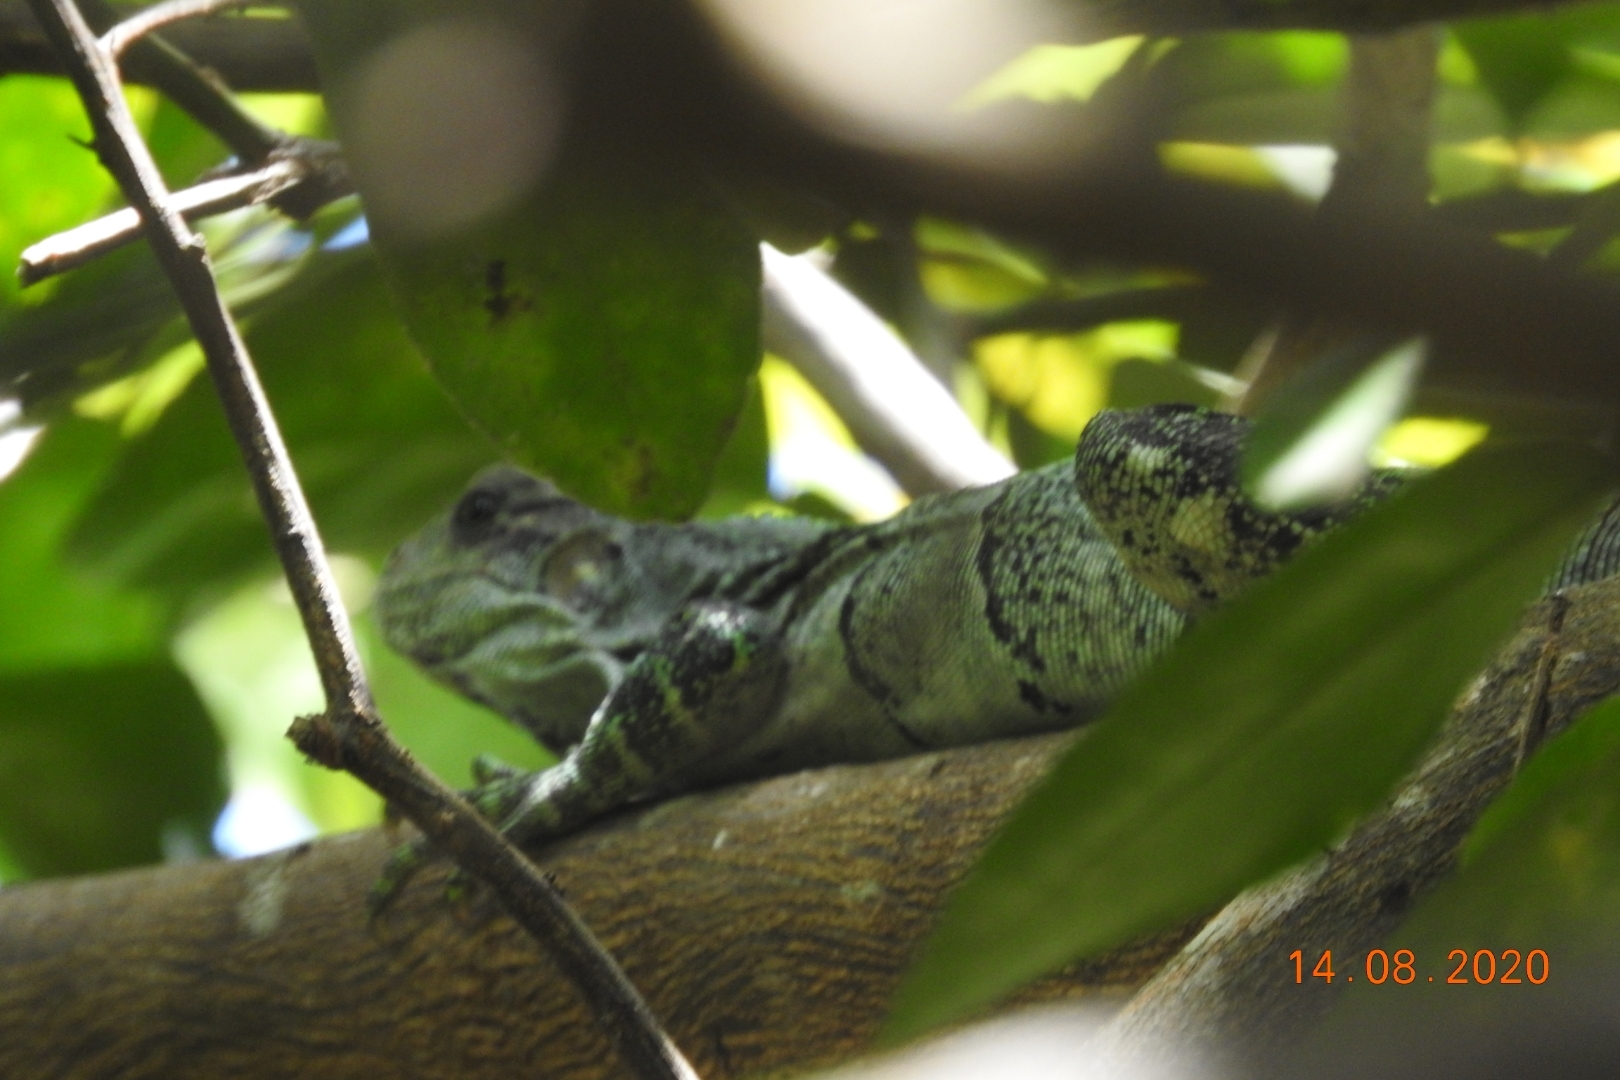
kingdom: Animalia
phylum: Chordata
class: Squamata
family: Iguanidae
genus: Ctenosaura
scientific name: Ctenosaura similis
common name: Black spiny-tailed iguana
